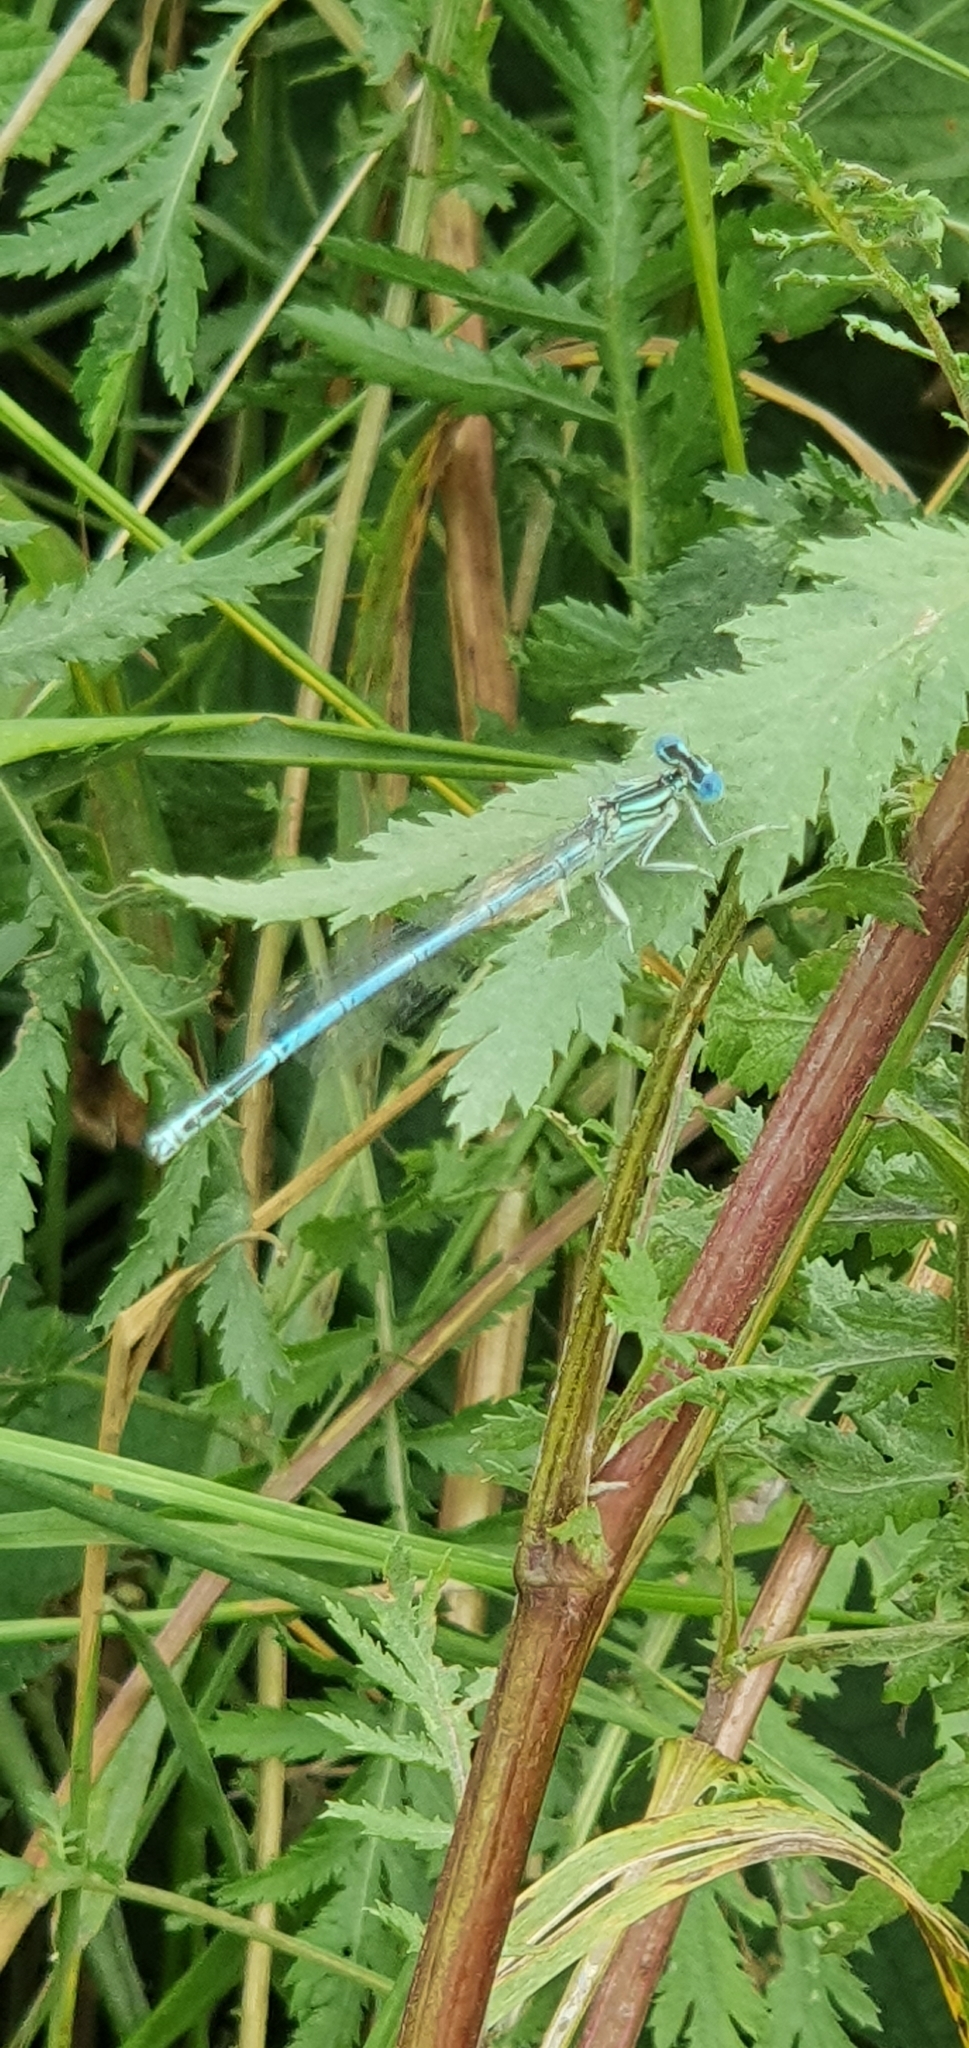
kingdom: Animalia
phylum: Arthropoda
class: Insecta
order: Odonata
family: Platycnemididae
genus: Platycnemis
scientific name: Platycnemis pennipes
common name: White-legged damselfly
